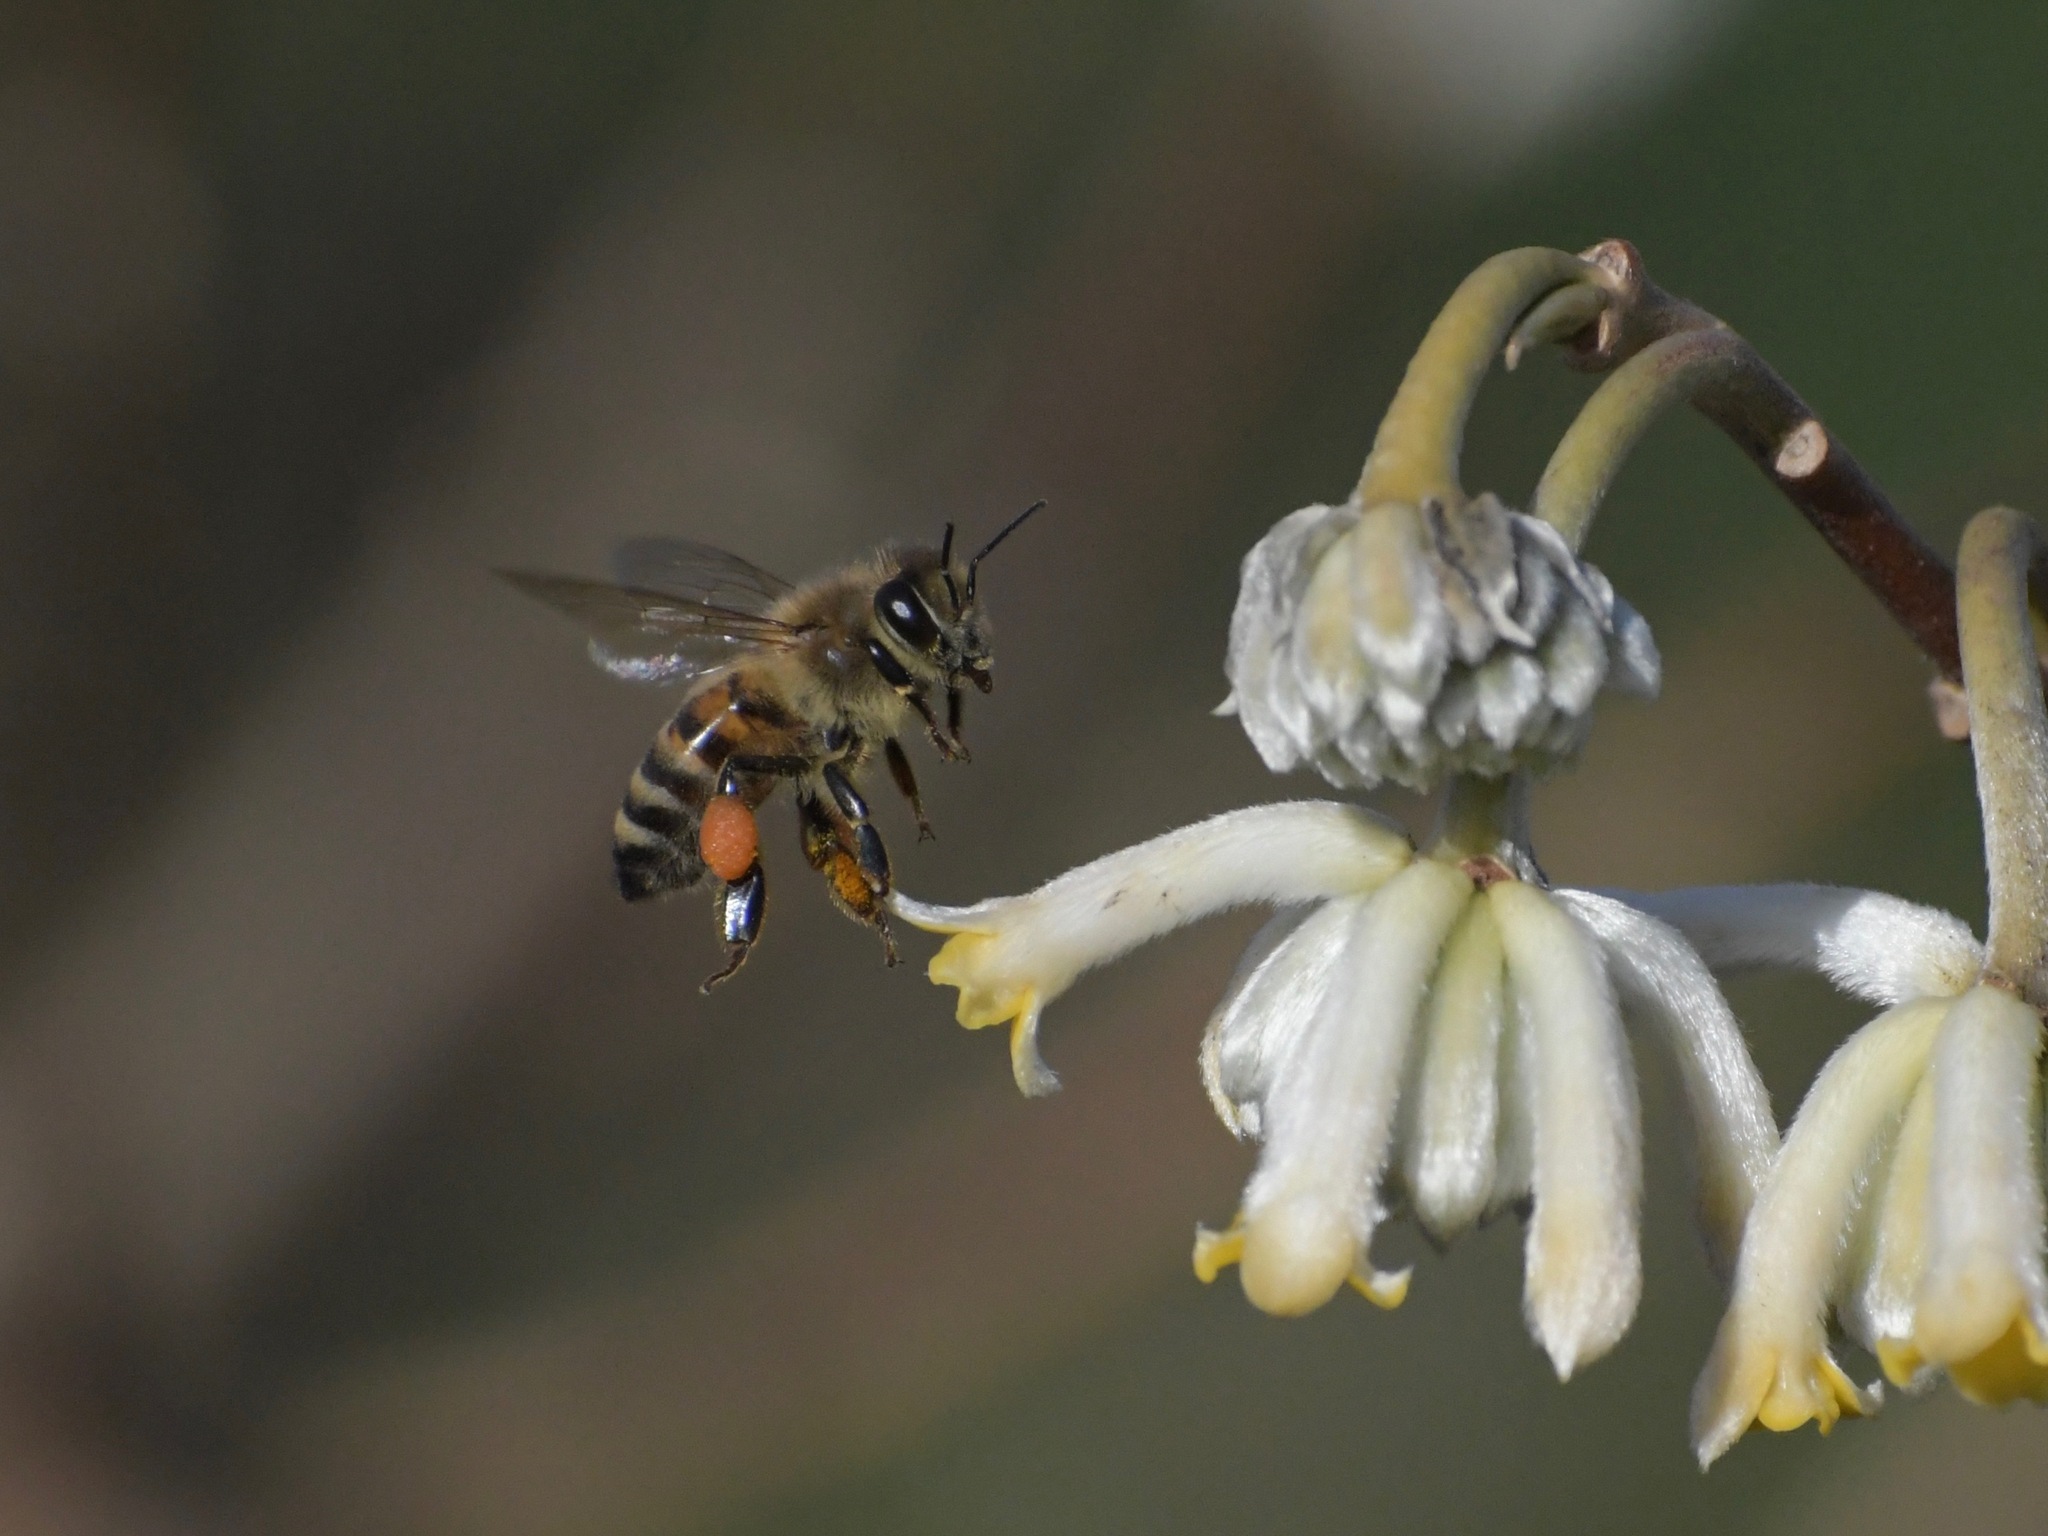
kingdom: Animalia
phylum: Arthropoda
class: Insecta
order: Hymenoptera
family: Apidae
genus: Apis
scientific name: Apis mellifera
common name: Honey bee
